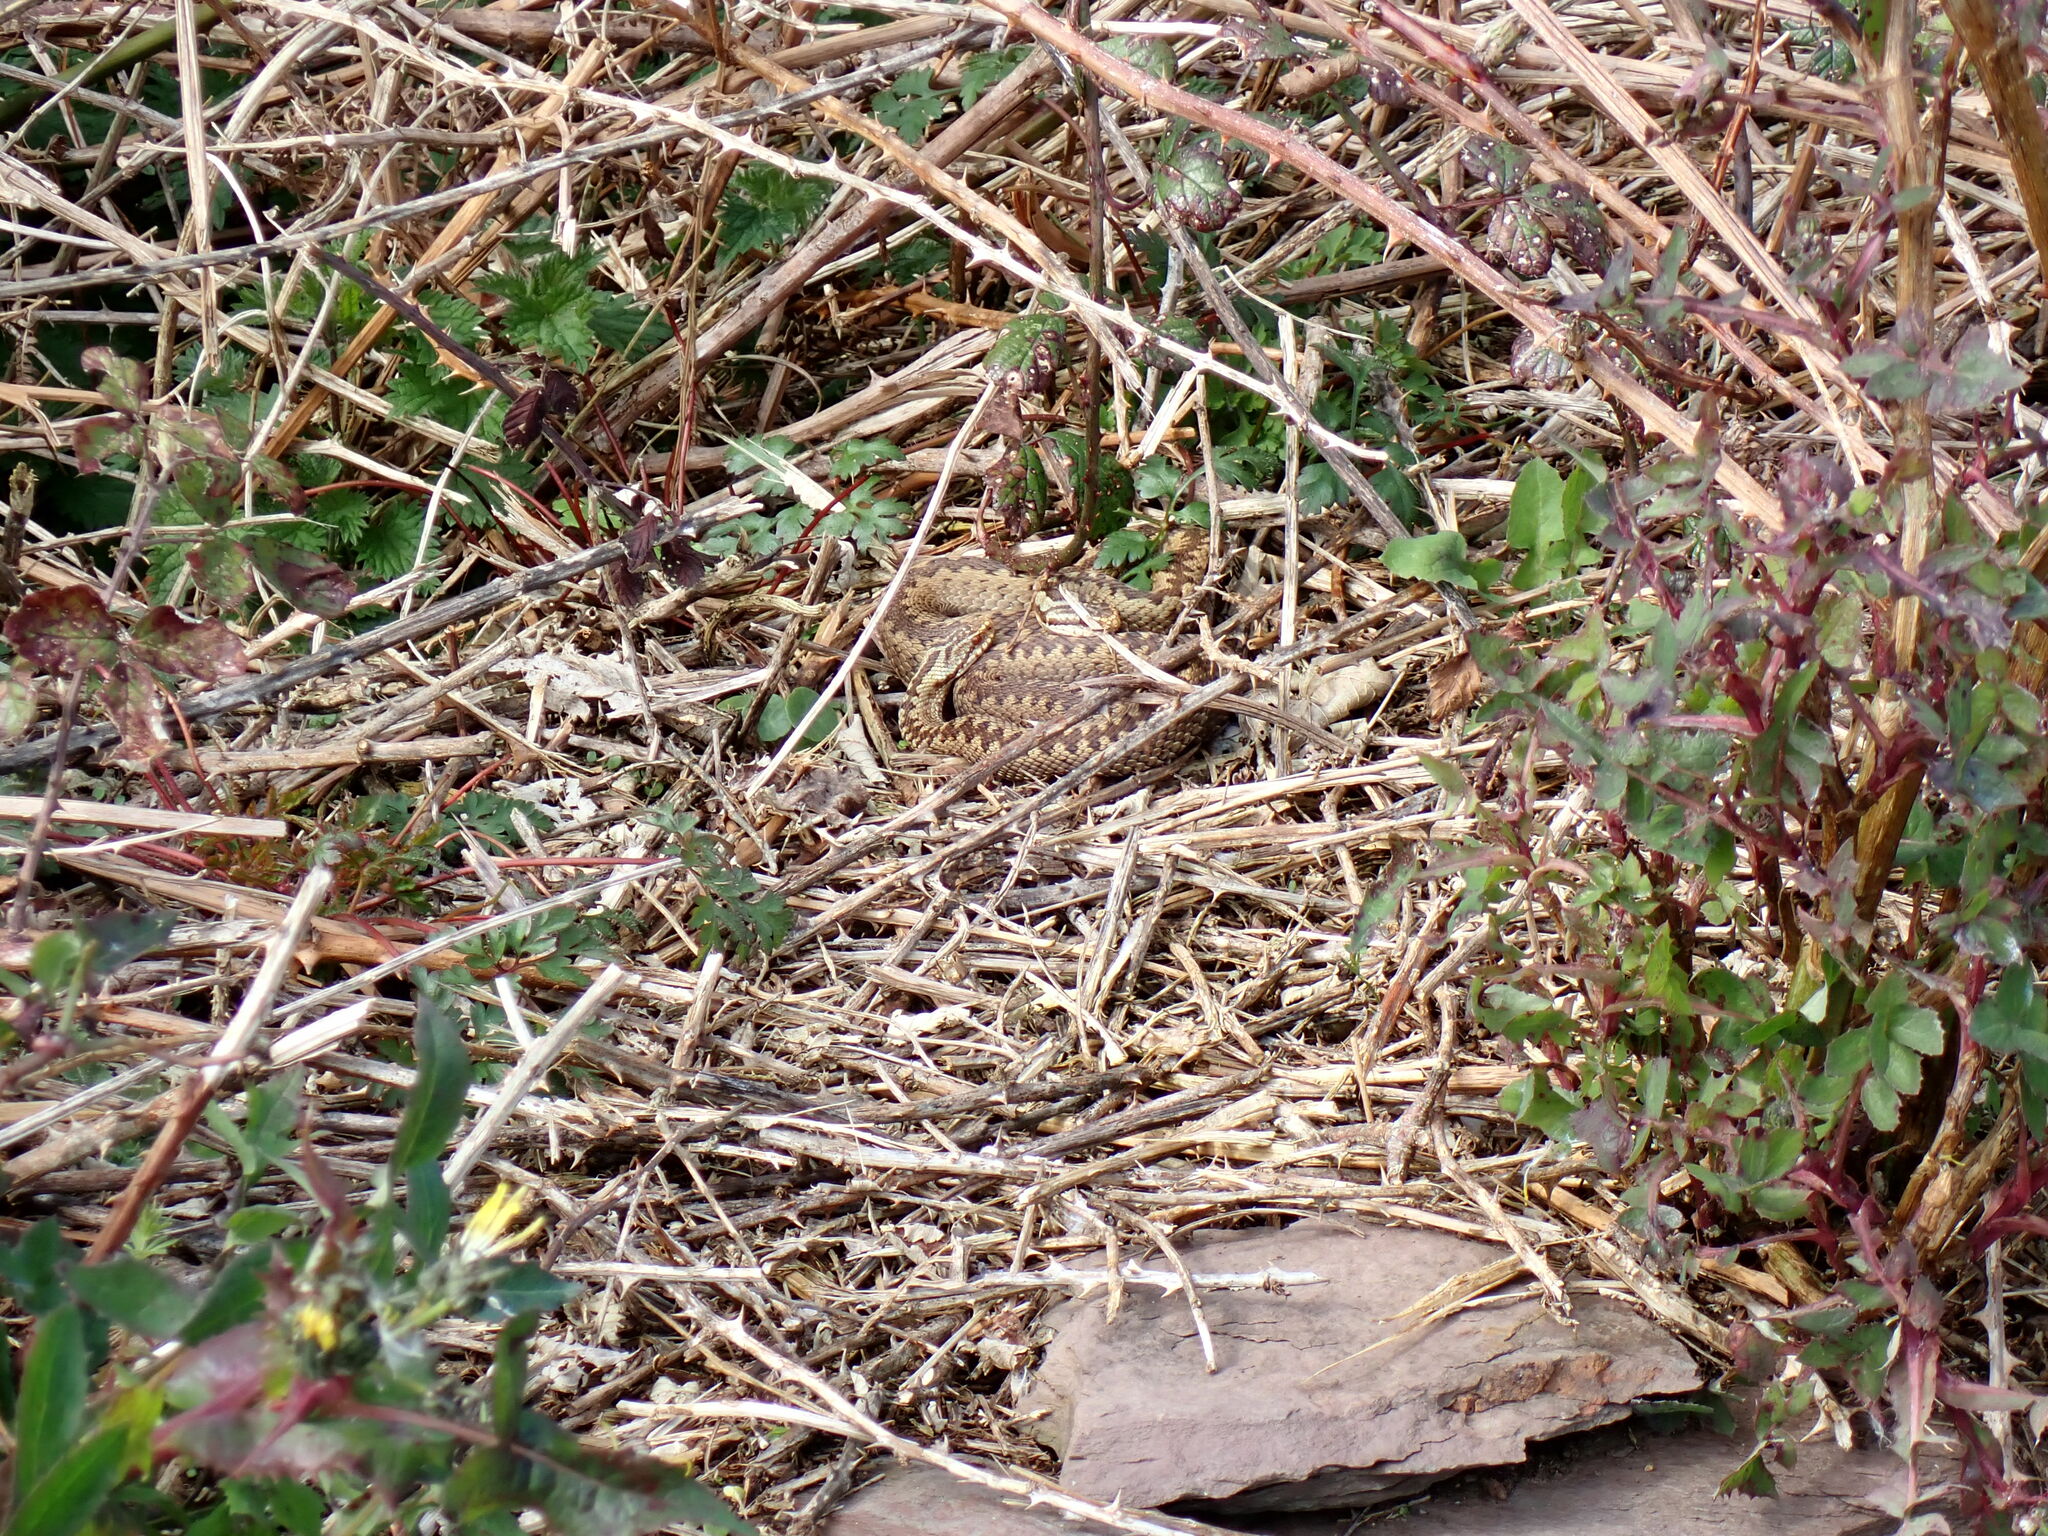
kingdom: Animalia
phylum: Chordata
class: Squamata
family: Viperidae
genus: Vipera
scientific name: Vipera berus
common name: Adder
